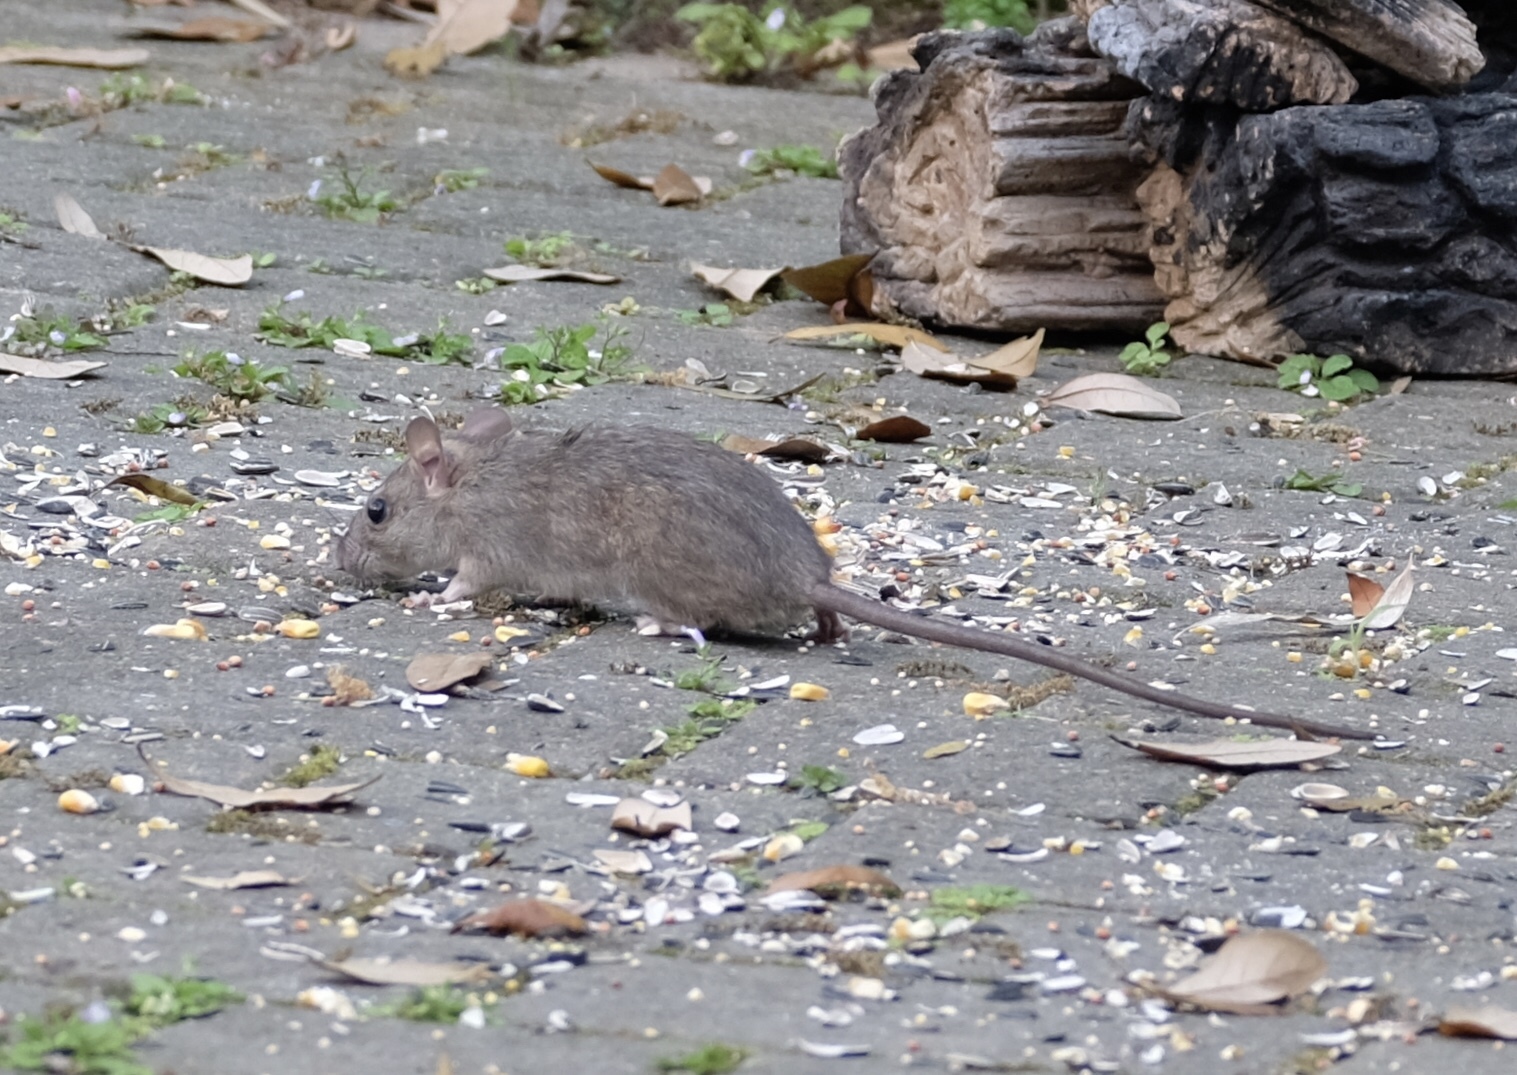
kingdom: Animalia
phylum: Chordata
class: Mammalia
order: Rodentia
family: Muridae
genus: Rattus
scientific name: Rattus rattus
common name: Black rat
